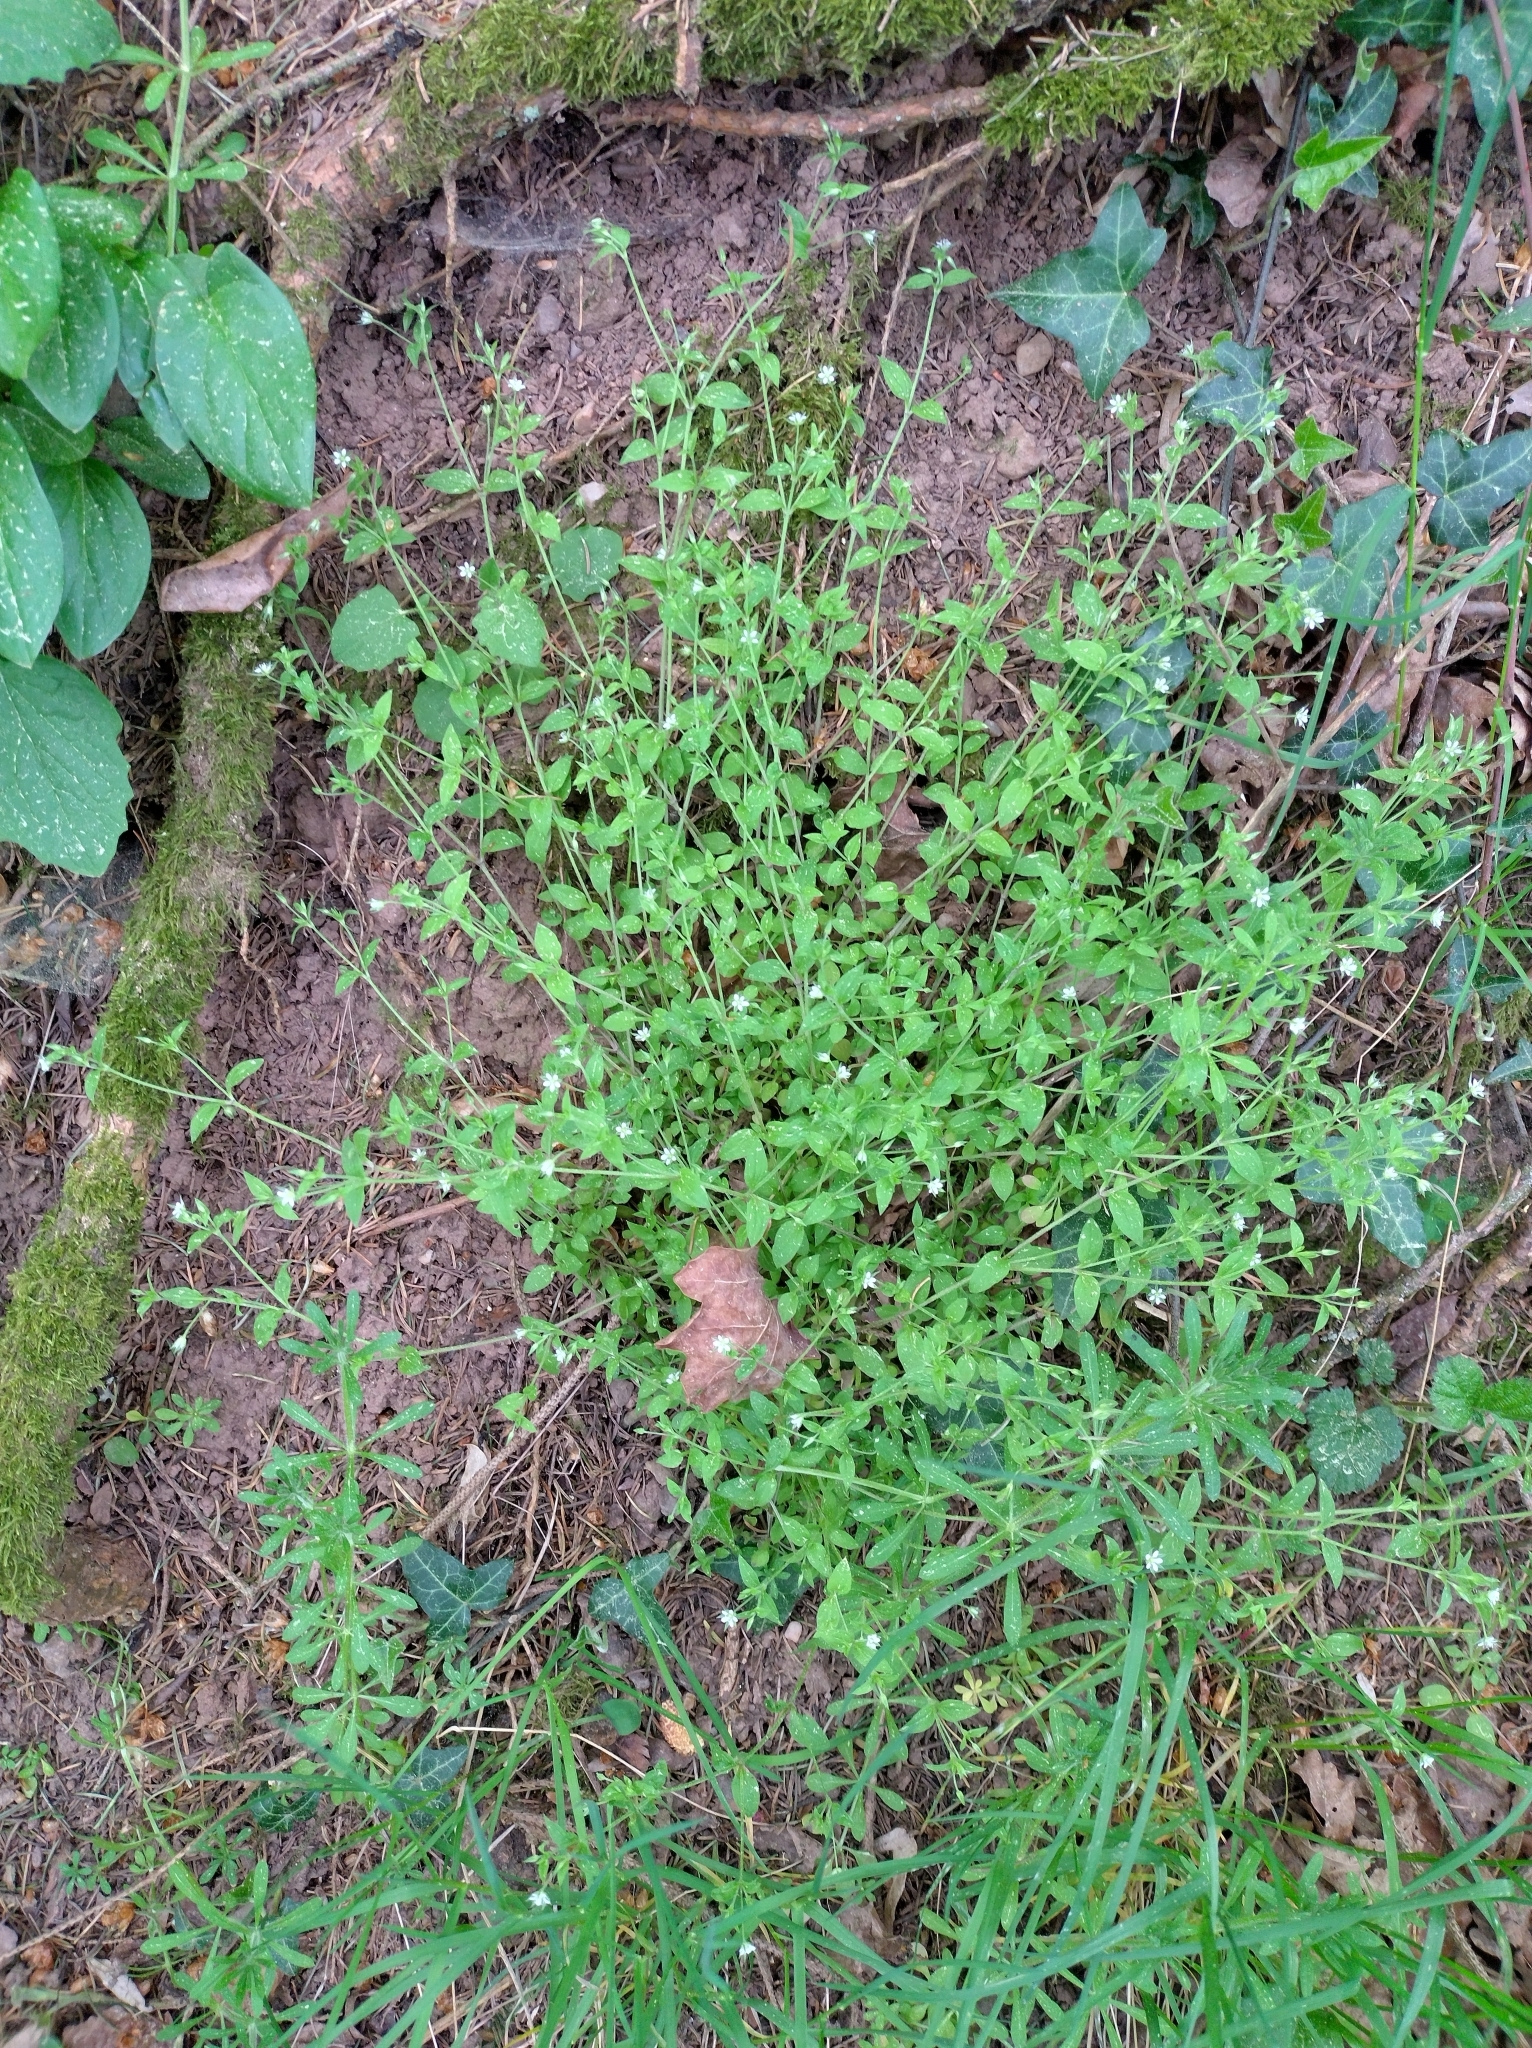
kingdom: Plantae
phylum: Tracheophyta
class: Magnoliopsida
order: Caryophyllales
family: Caryophyllaceae
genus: Moehringia
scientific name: Moehringia trinervia
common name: Three-nerved sandwort
